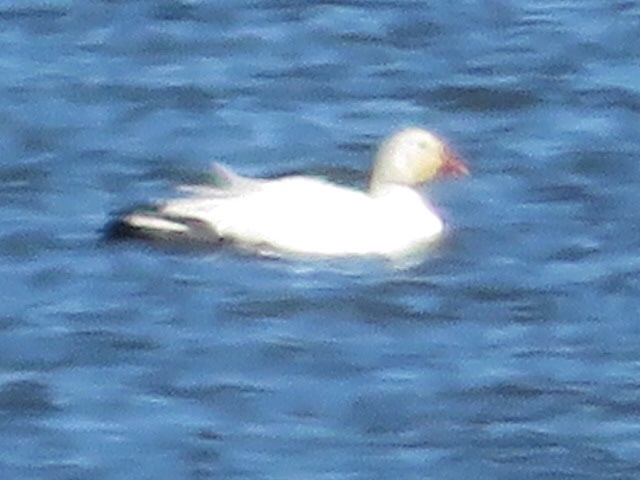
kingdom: Animalia
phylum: Chordata
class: Aves
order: Anseriformes
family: Anatidae
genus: Anser
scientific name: Anser caerulescens
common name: Snow goose
